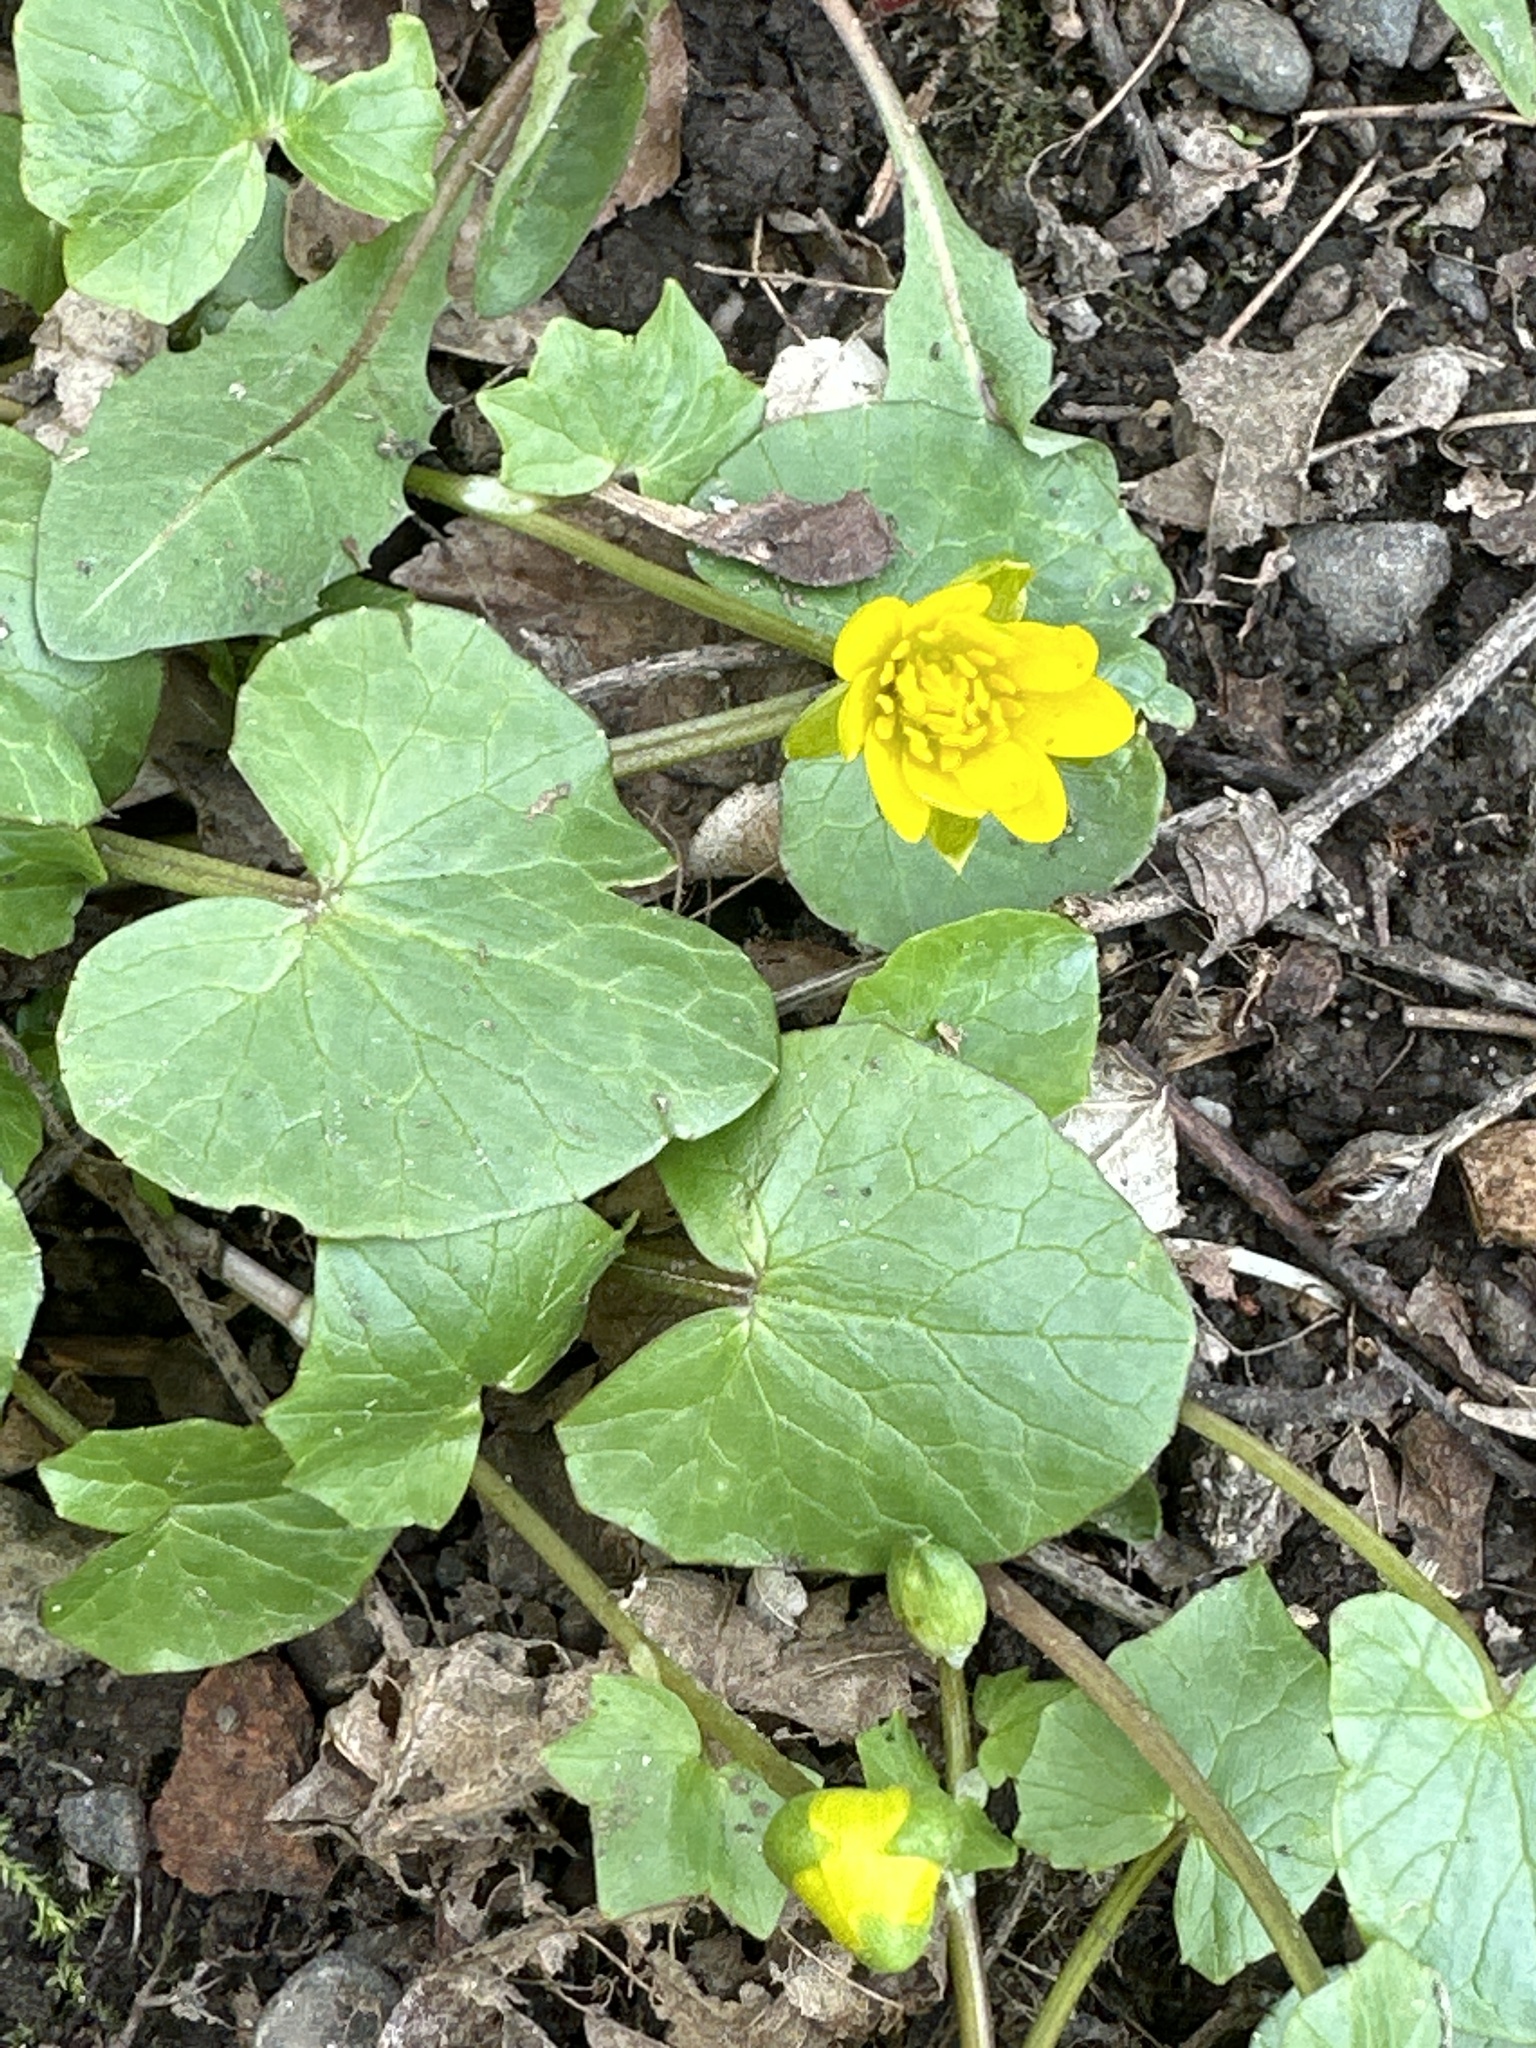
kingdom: Plantae
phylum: Tracheophyta
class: Magnoliopsida
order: Ranunculales
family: Ranunculaceae
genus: Ficaria
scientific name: Ficaria verna
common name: Lesser celandine
